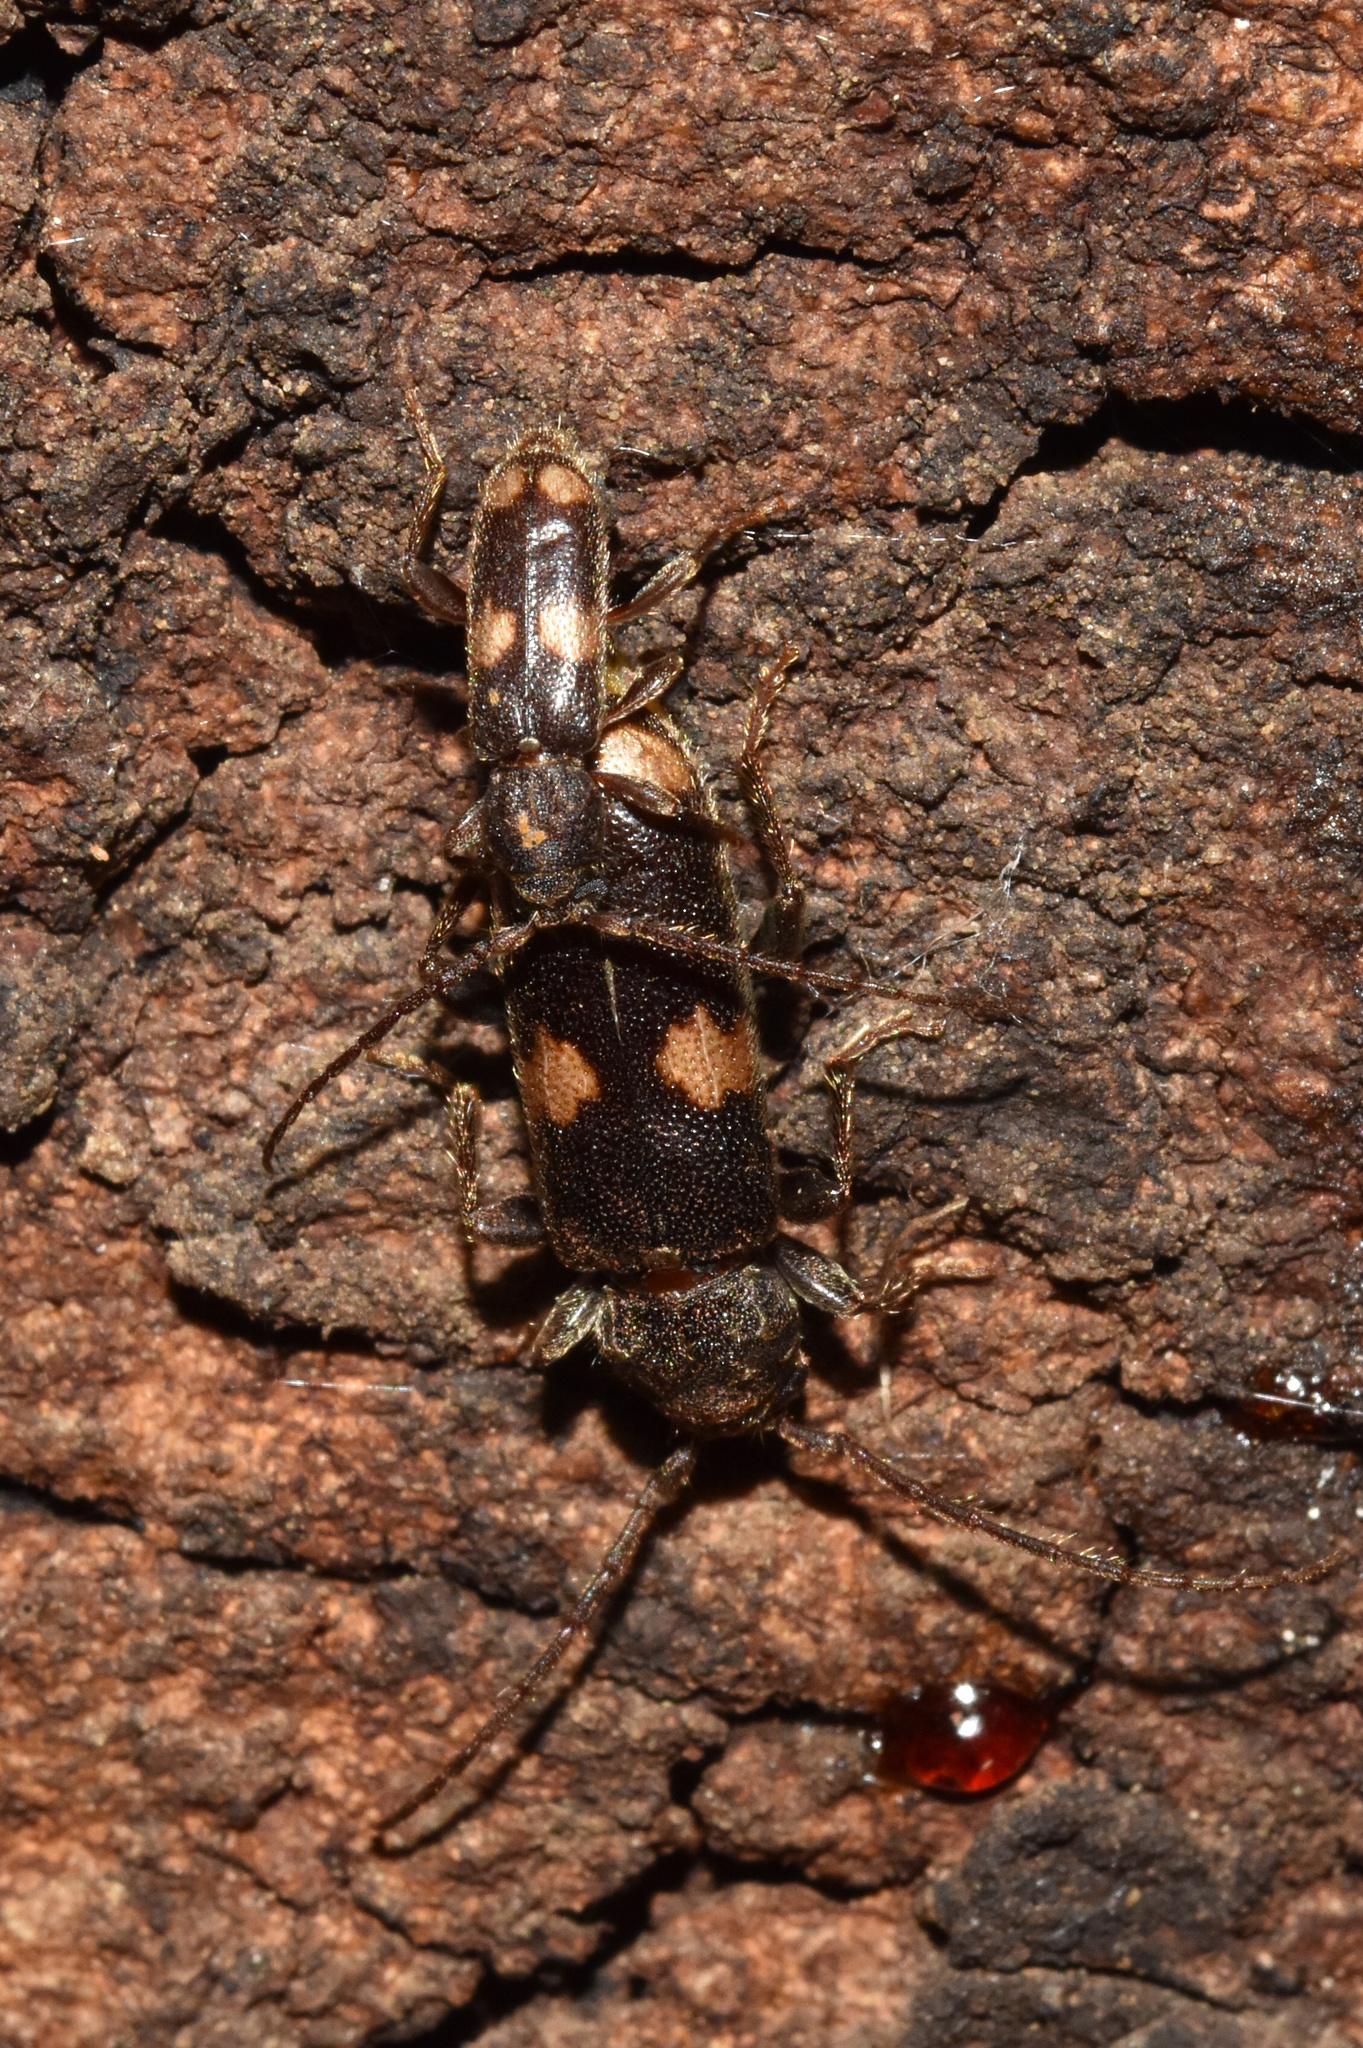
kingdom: Animalia
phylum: Arthropoda
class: Insecta
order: Coleoptera
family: Cerambycidae
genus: Zamium
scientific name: Zamium bimaculatum
